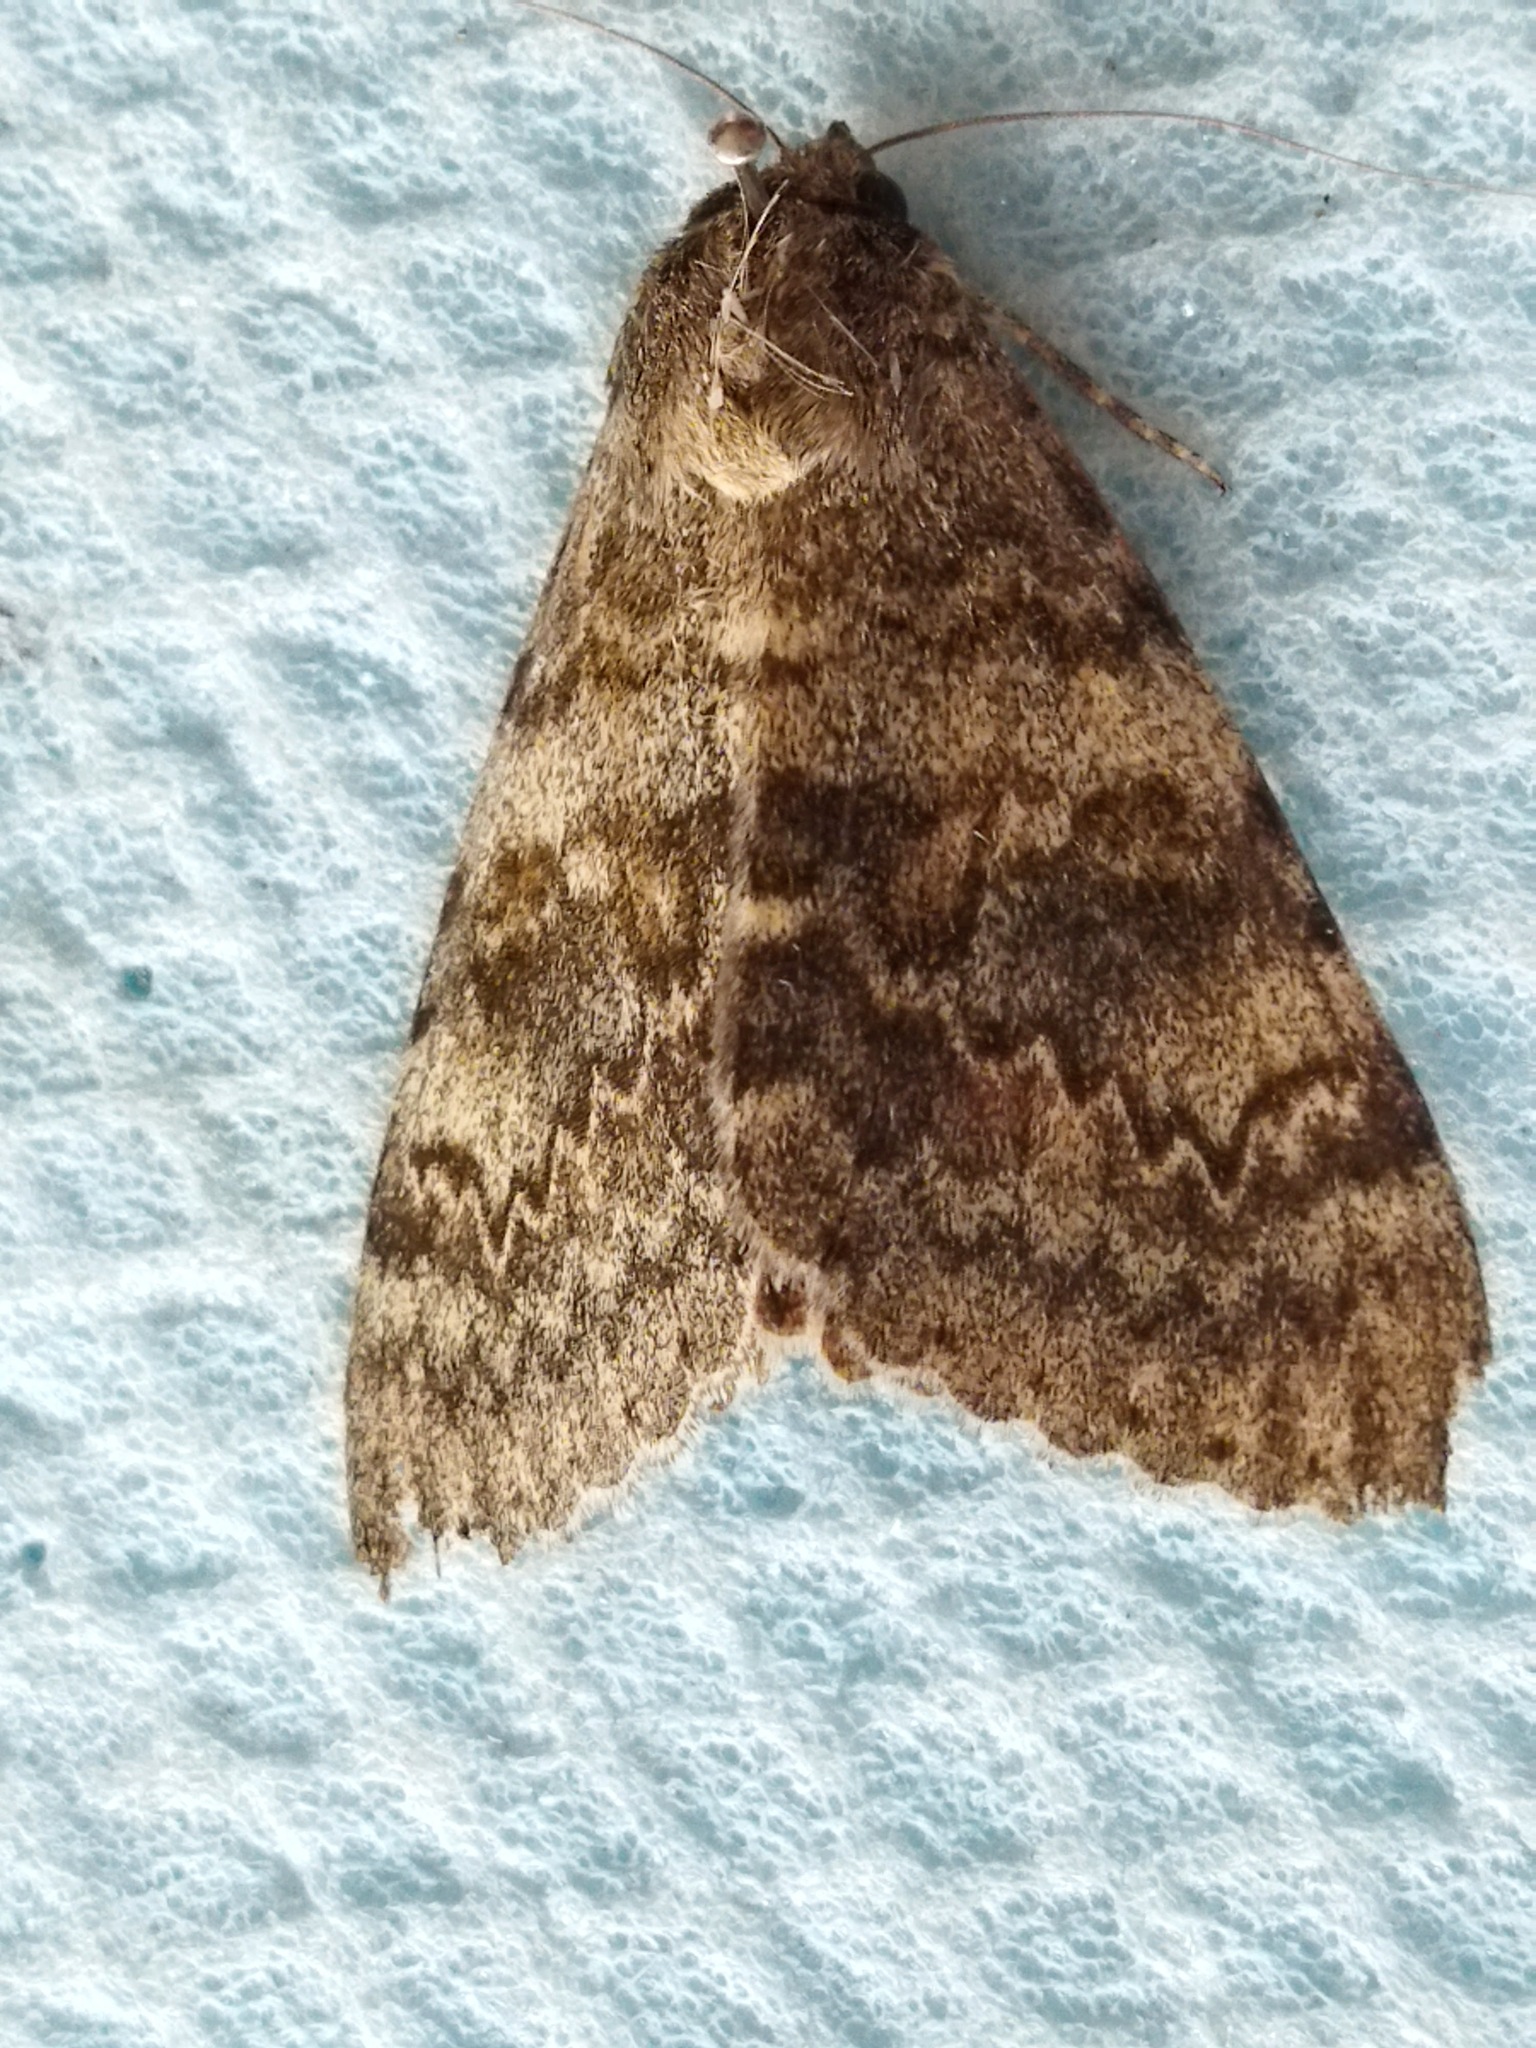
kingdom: Animalia
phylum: Arthropoda
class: Insecta
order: Lepidoptera
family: Erebidae
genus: Catocala
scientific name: Catocala
